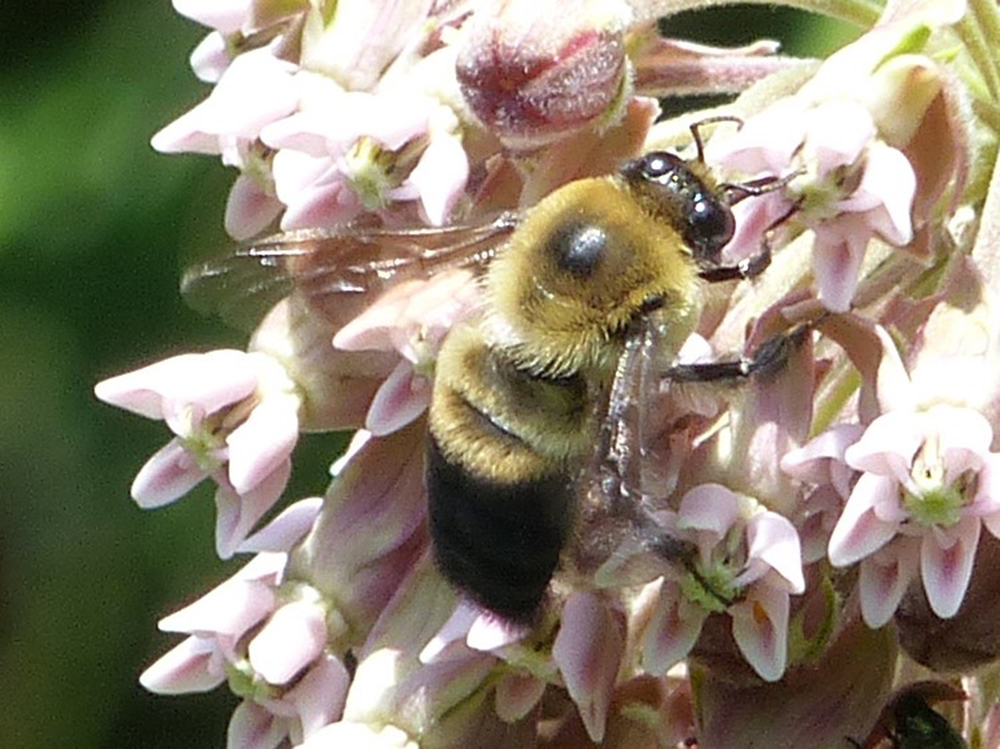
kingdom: Animalia
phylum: Arthropoda
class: Insecta
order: Hymenoptera
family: Apidae
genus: Bombus
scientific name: Bombus griseocollis
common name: Brown-belted bumble bee
